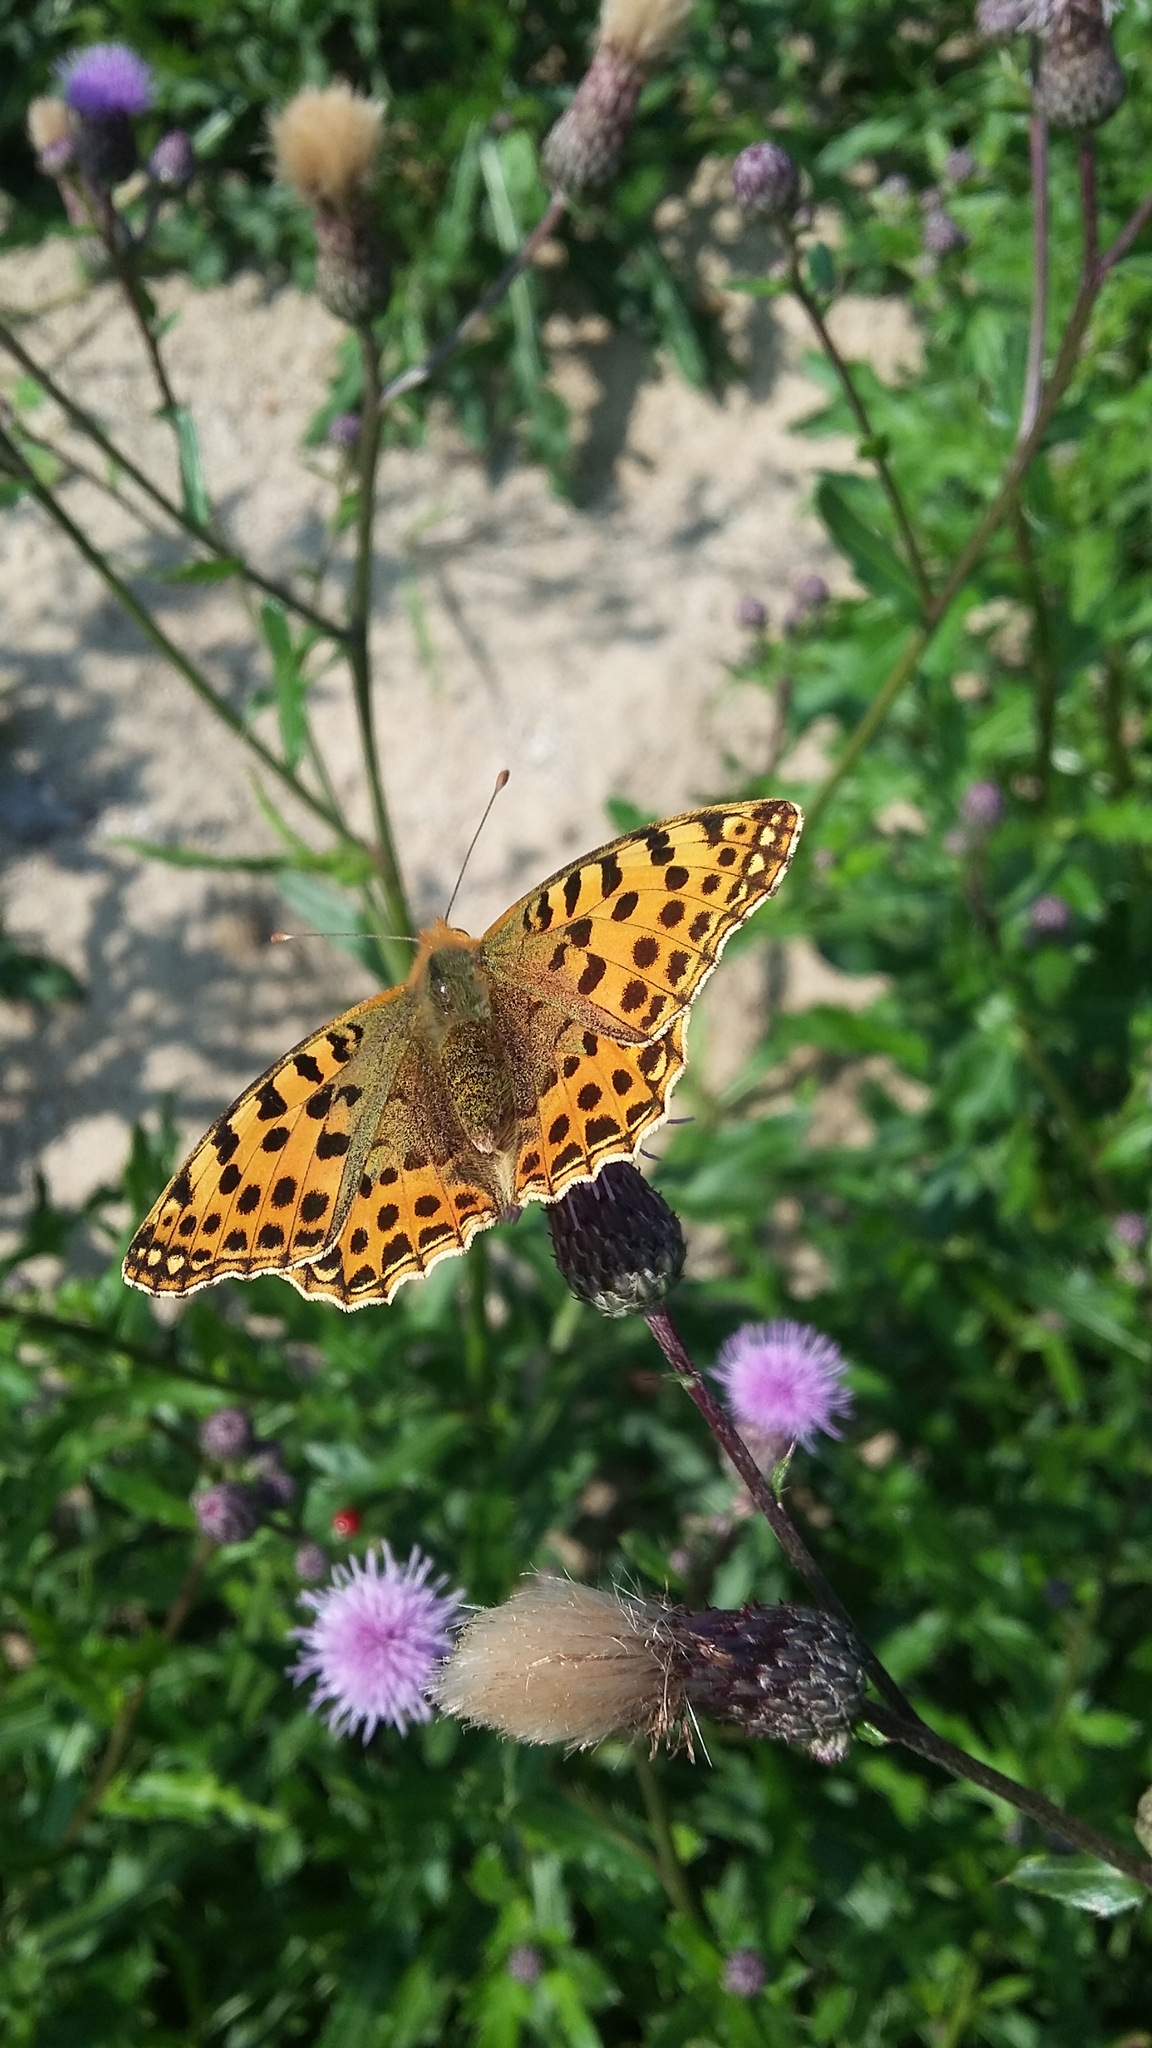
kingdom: Animalia
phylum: Arthropoda
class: Insecta
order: Lepidoptera
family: Nymphalidae
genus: Issoria
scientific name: Issoria lathonia
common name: Queen of spain fritillary
